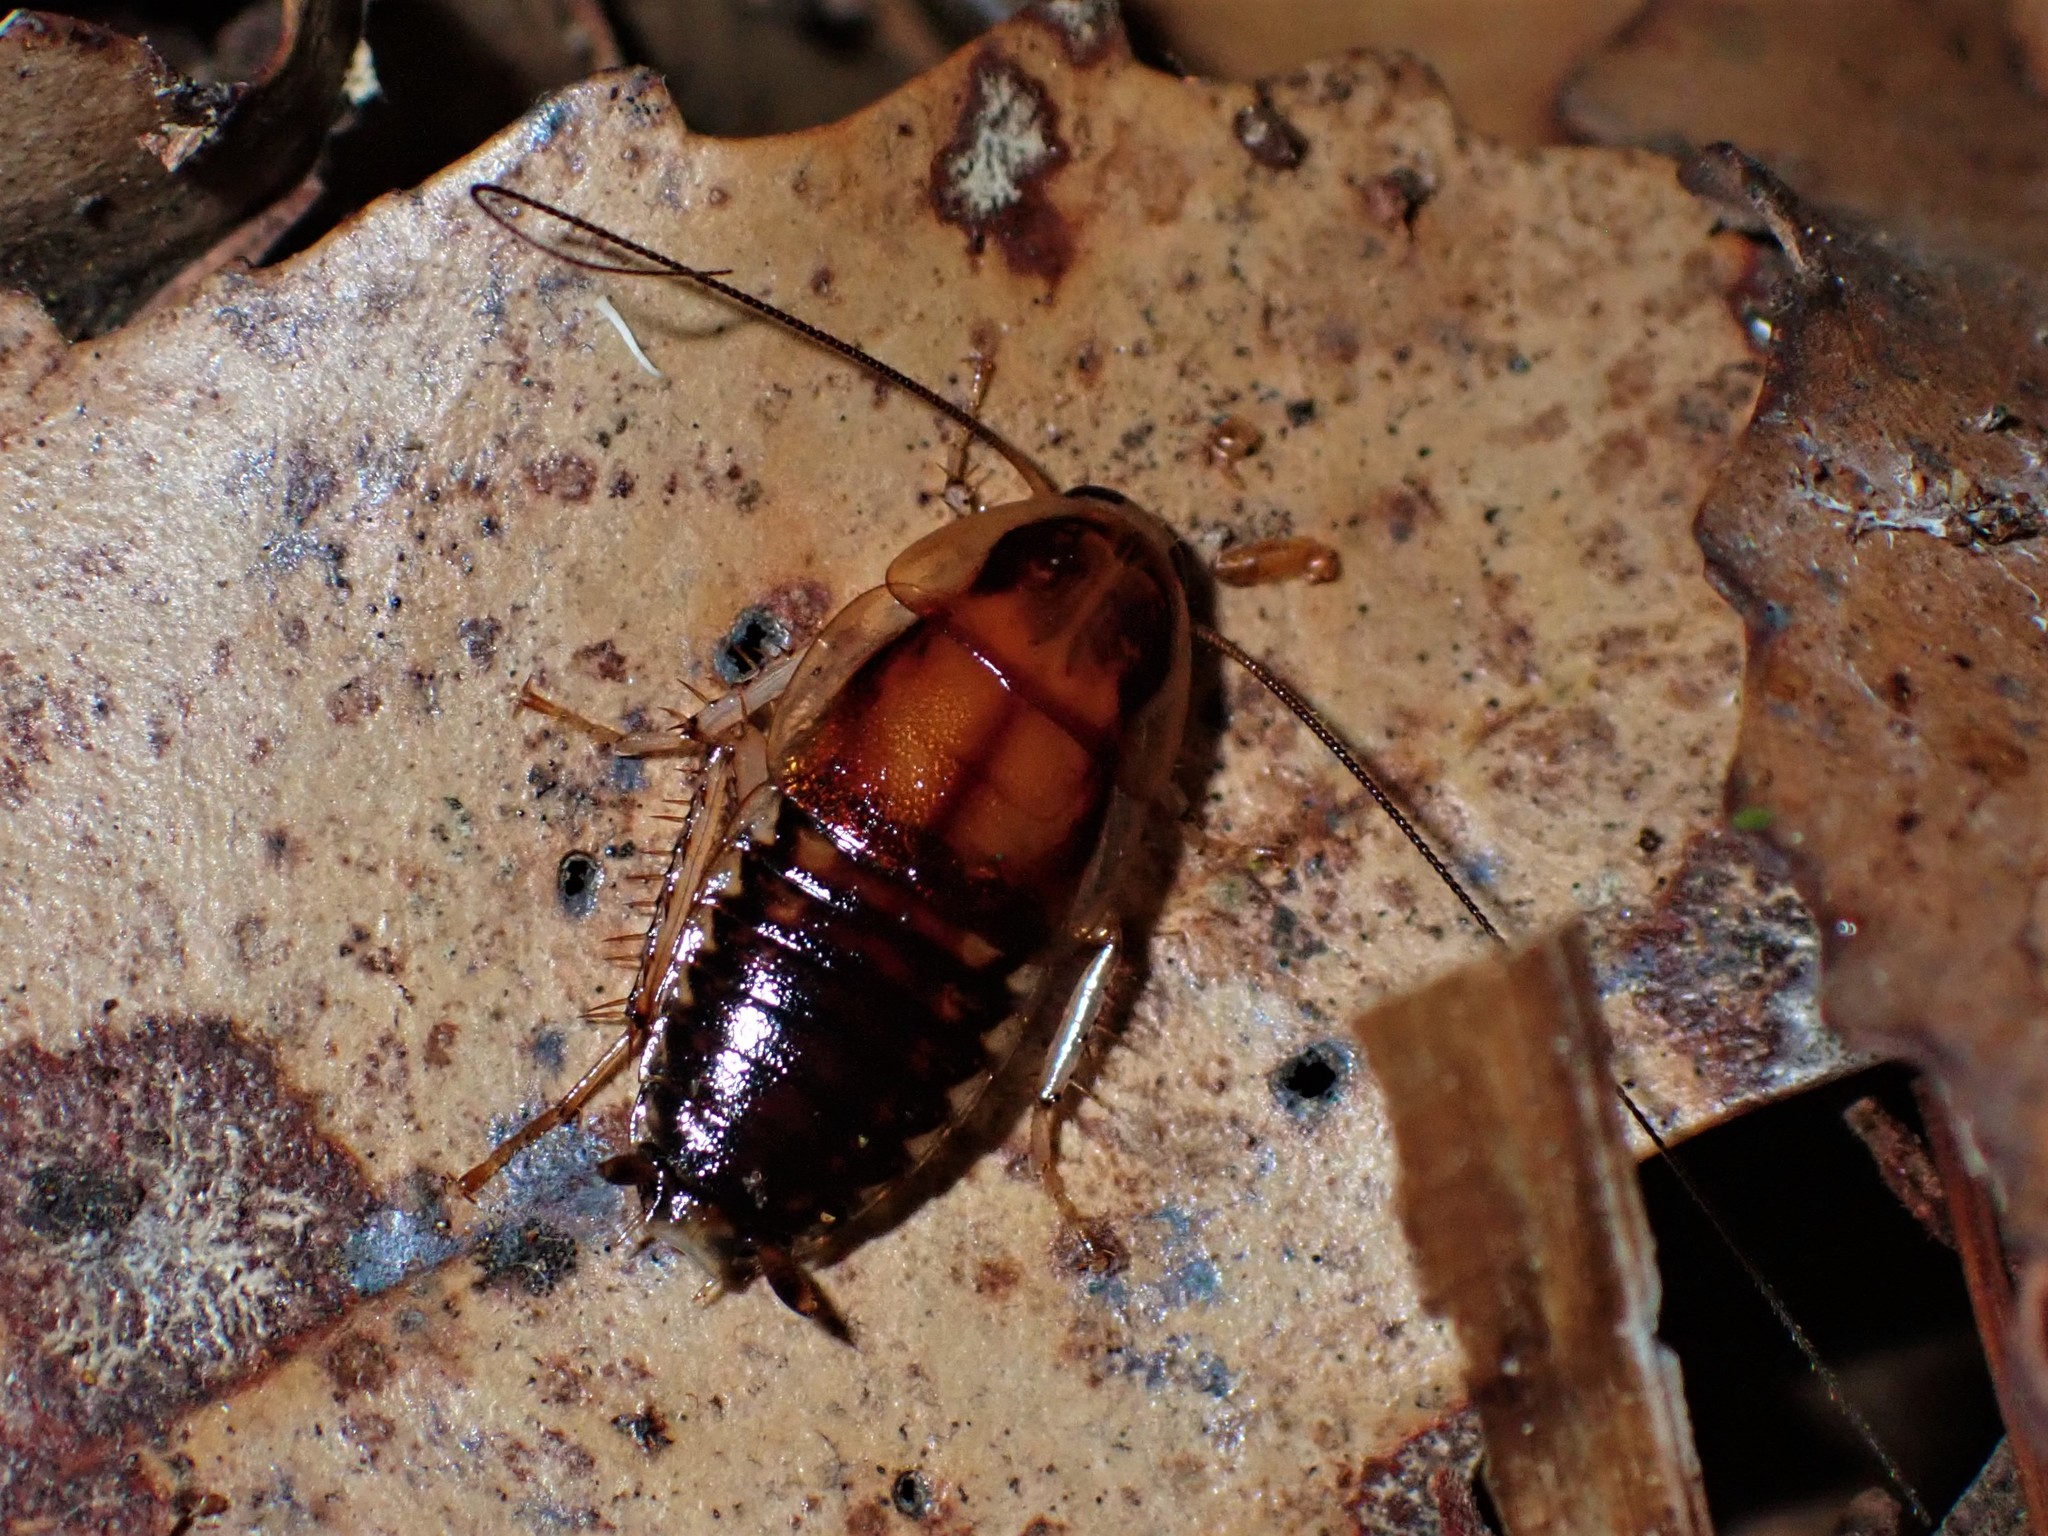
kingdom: Animalia
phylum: Arthropoda
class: Insecta
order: Blattodea
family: Blattidae
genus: Celatoblatta
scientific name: Celatoblatta undulivitta
